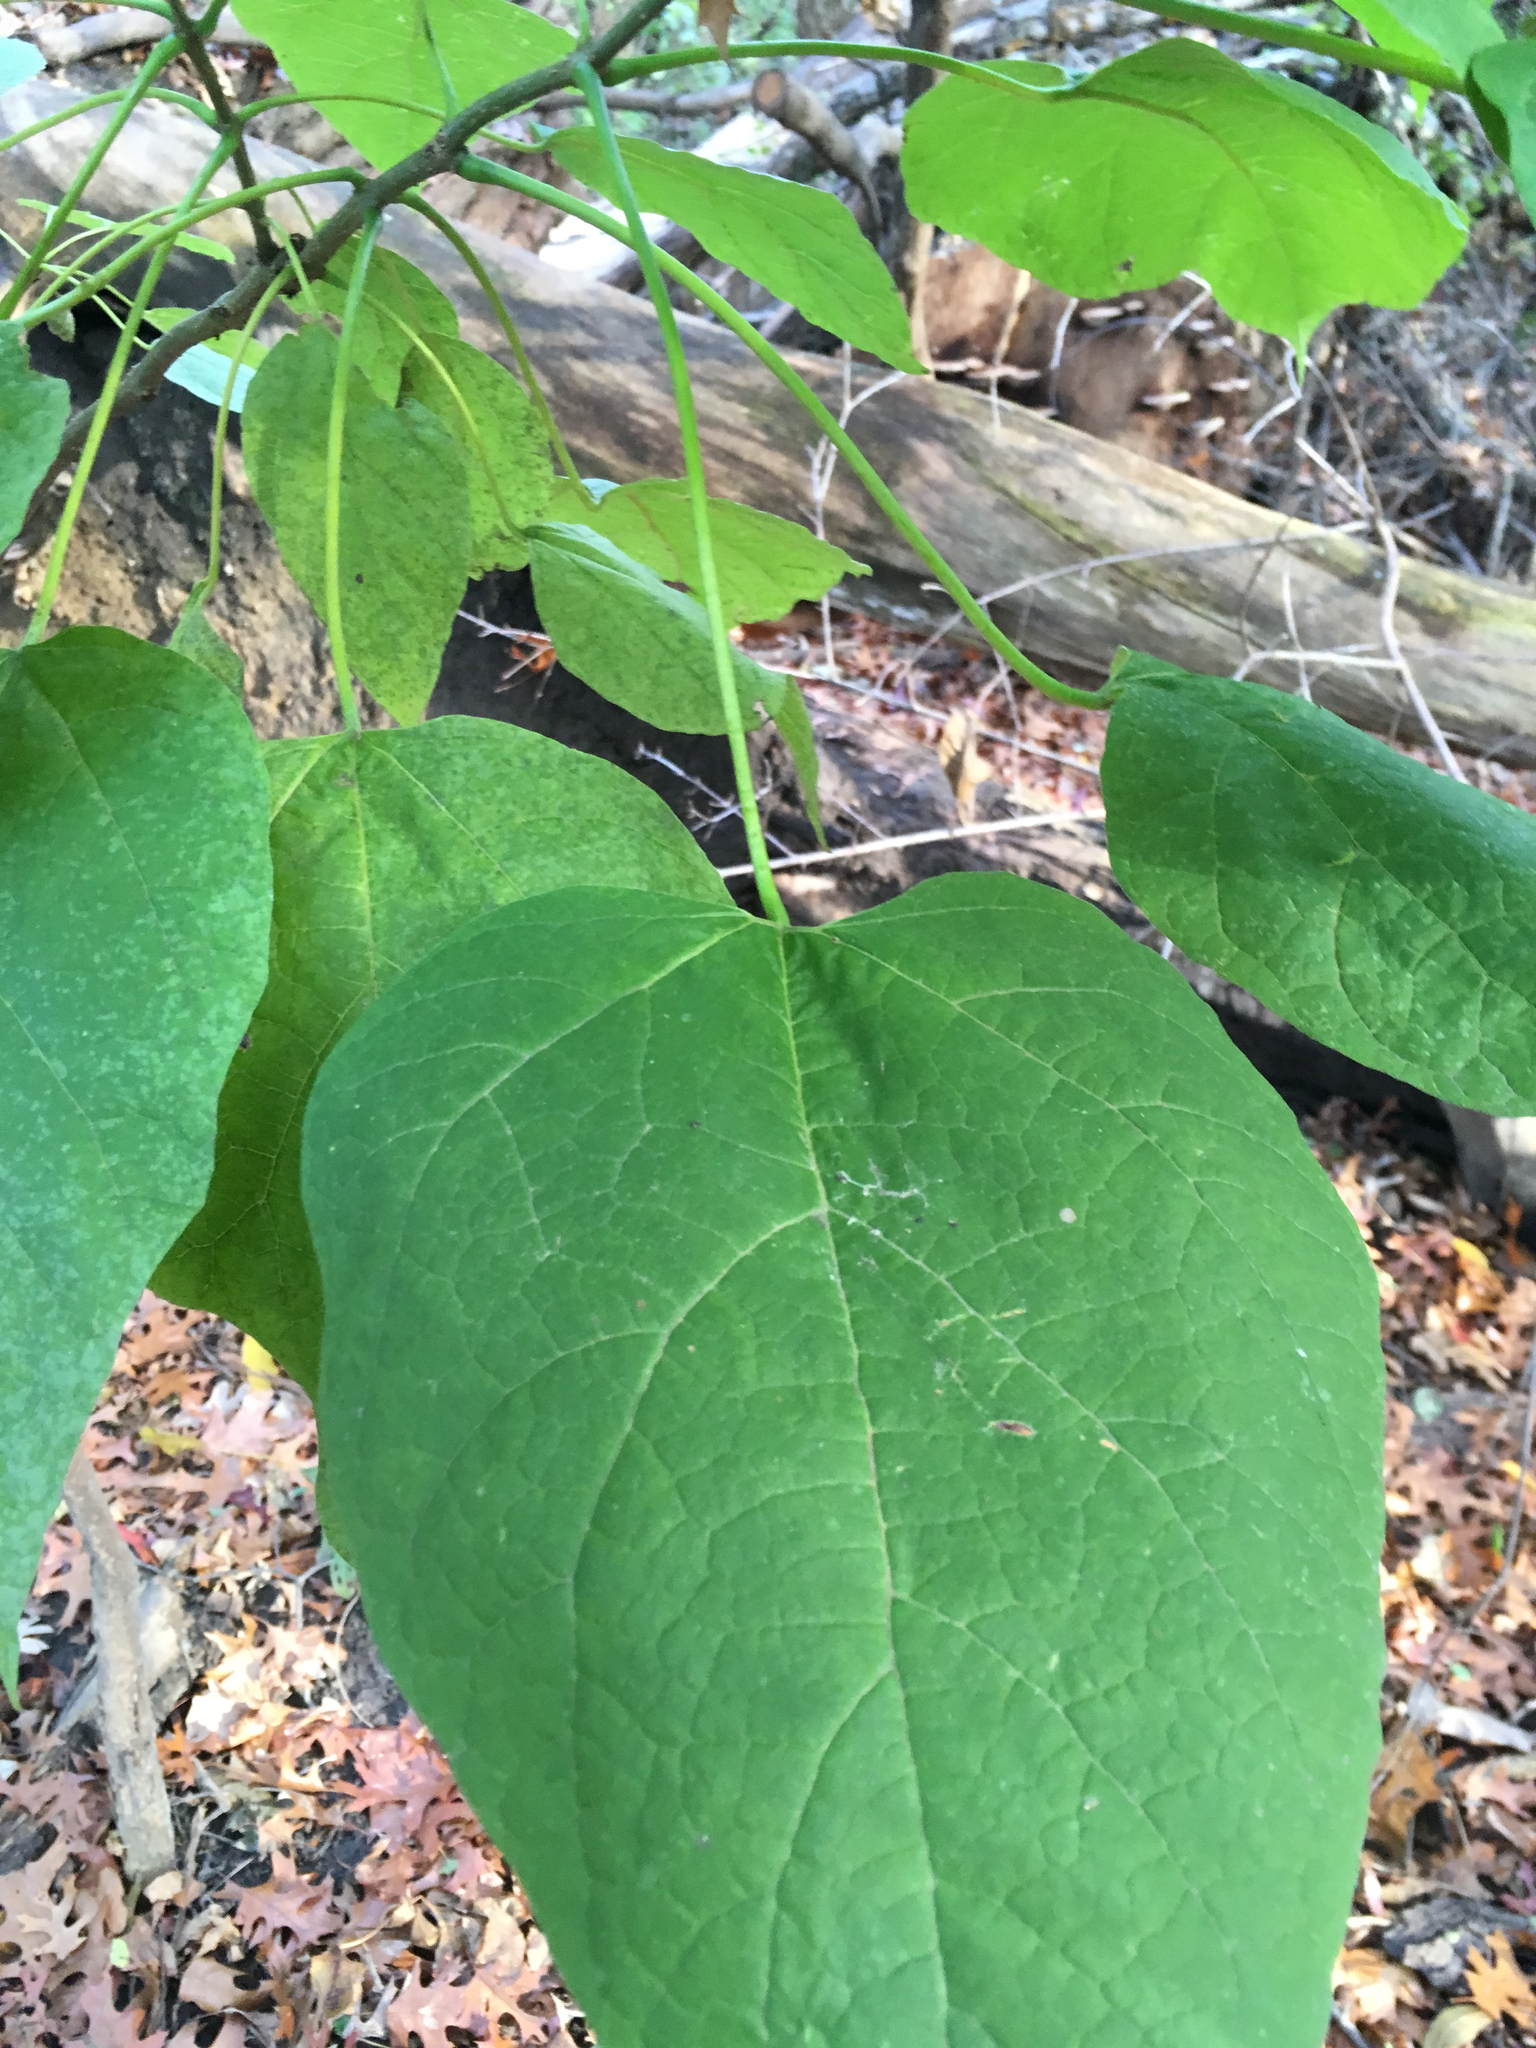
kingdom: Plantae
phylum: Tracheophyta
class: Magnoliopsida
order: Lamiales
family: Bignoniaceae
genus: Catalpa
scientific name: Catalpa speciosa
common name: Northern catalpa
